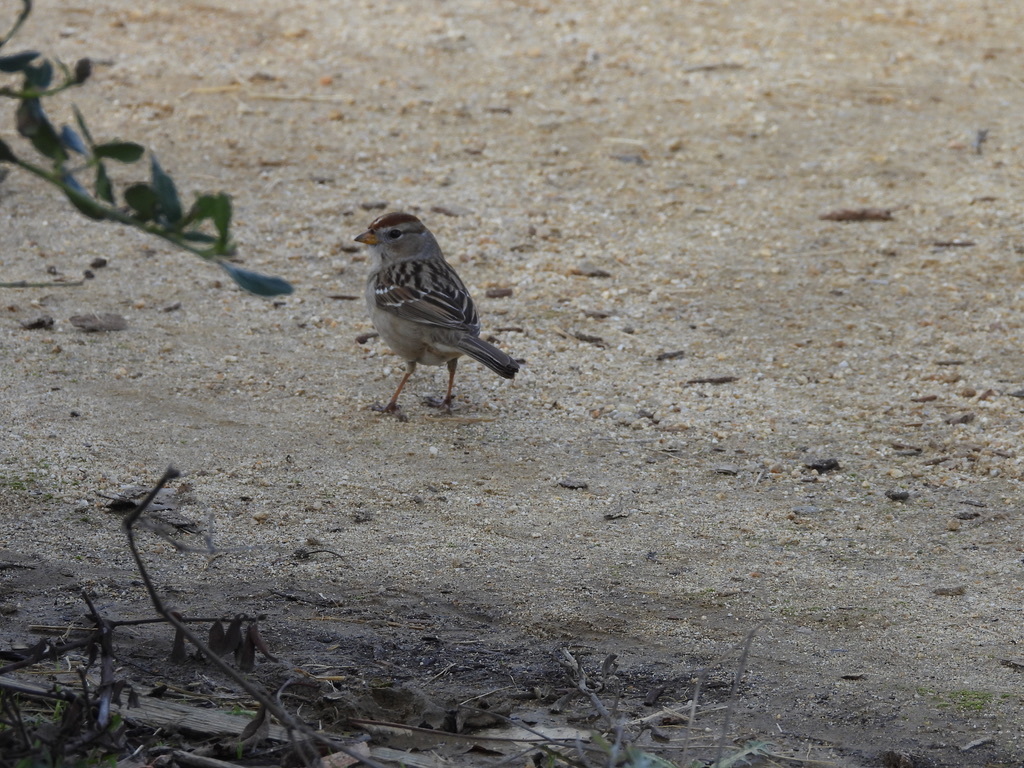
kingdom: Animalia
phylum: Chordata
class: Aves
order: Passeriformes
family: Passerellidae
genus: Zonotrichia
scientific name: Zonotrichia leucophrys
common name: White-crowned sparrow
